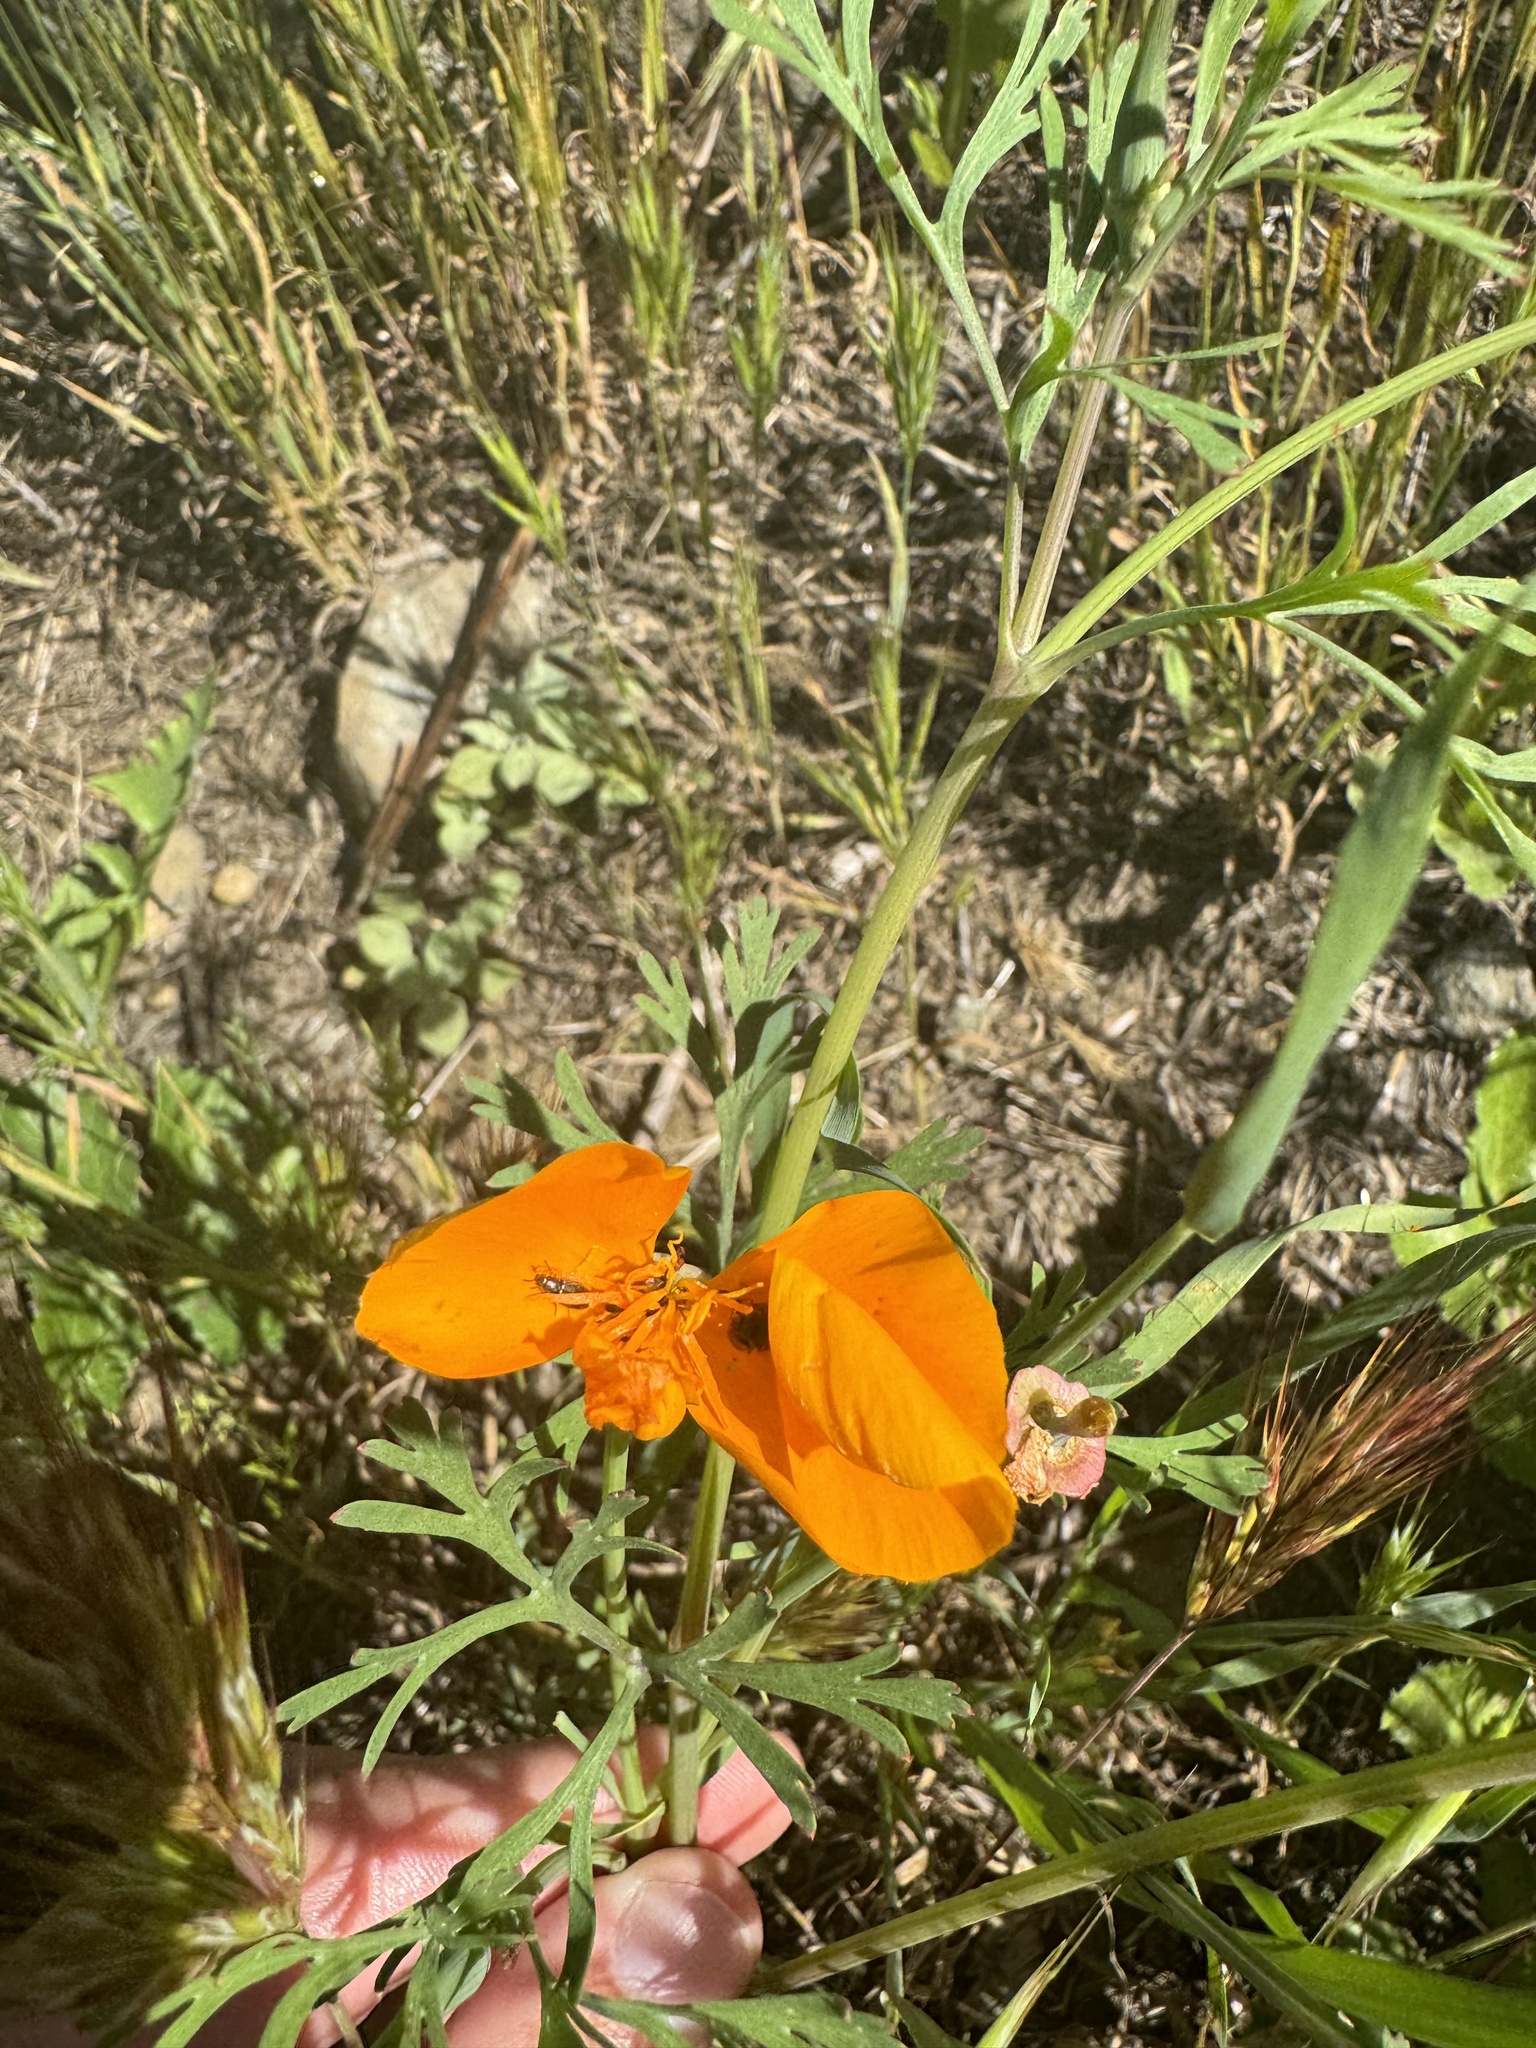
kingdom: Plantae
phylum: Tracheophyta
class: Magnoliopsida
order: Ranunculales
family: Papaveraceae
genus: Eschscholzia
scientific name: Eschscholzia californica
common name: California poppy
